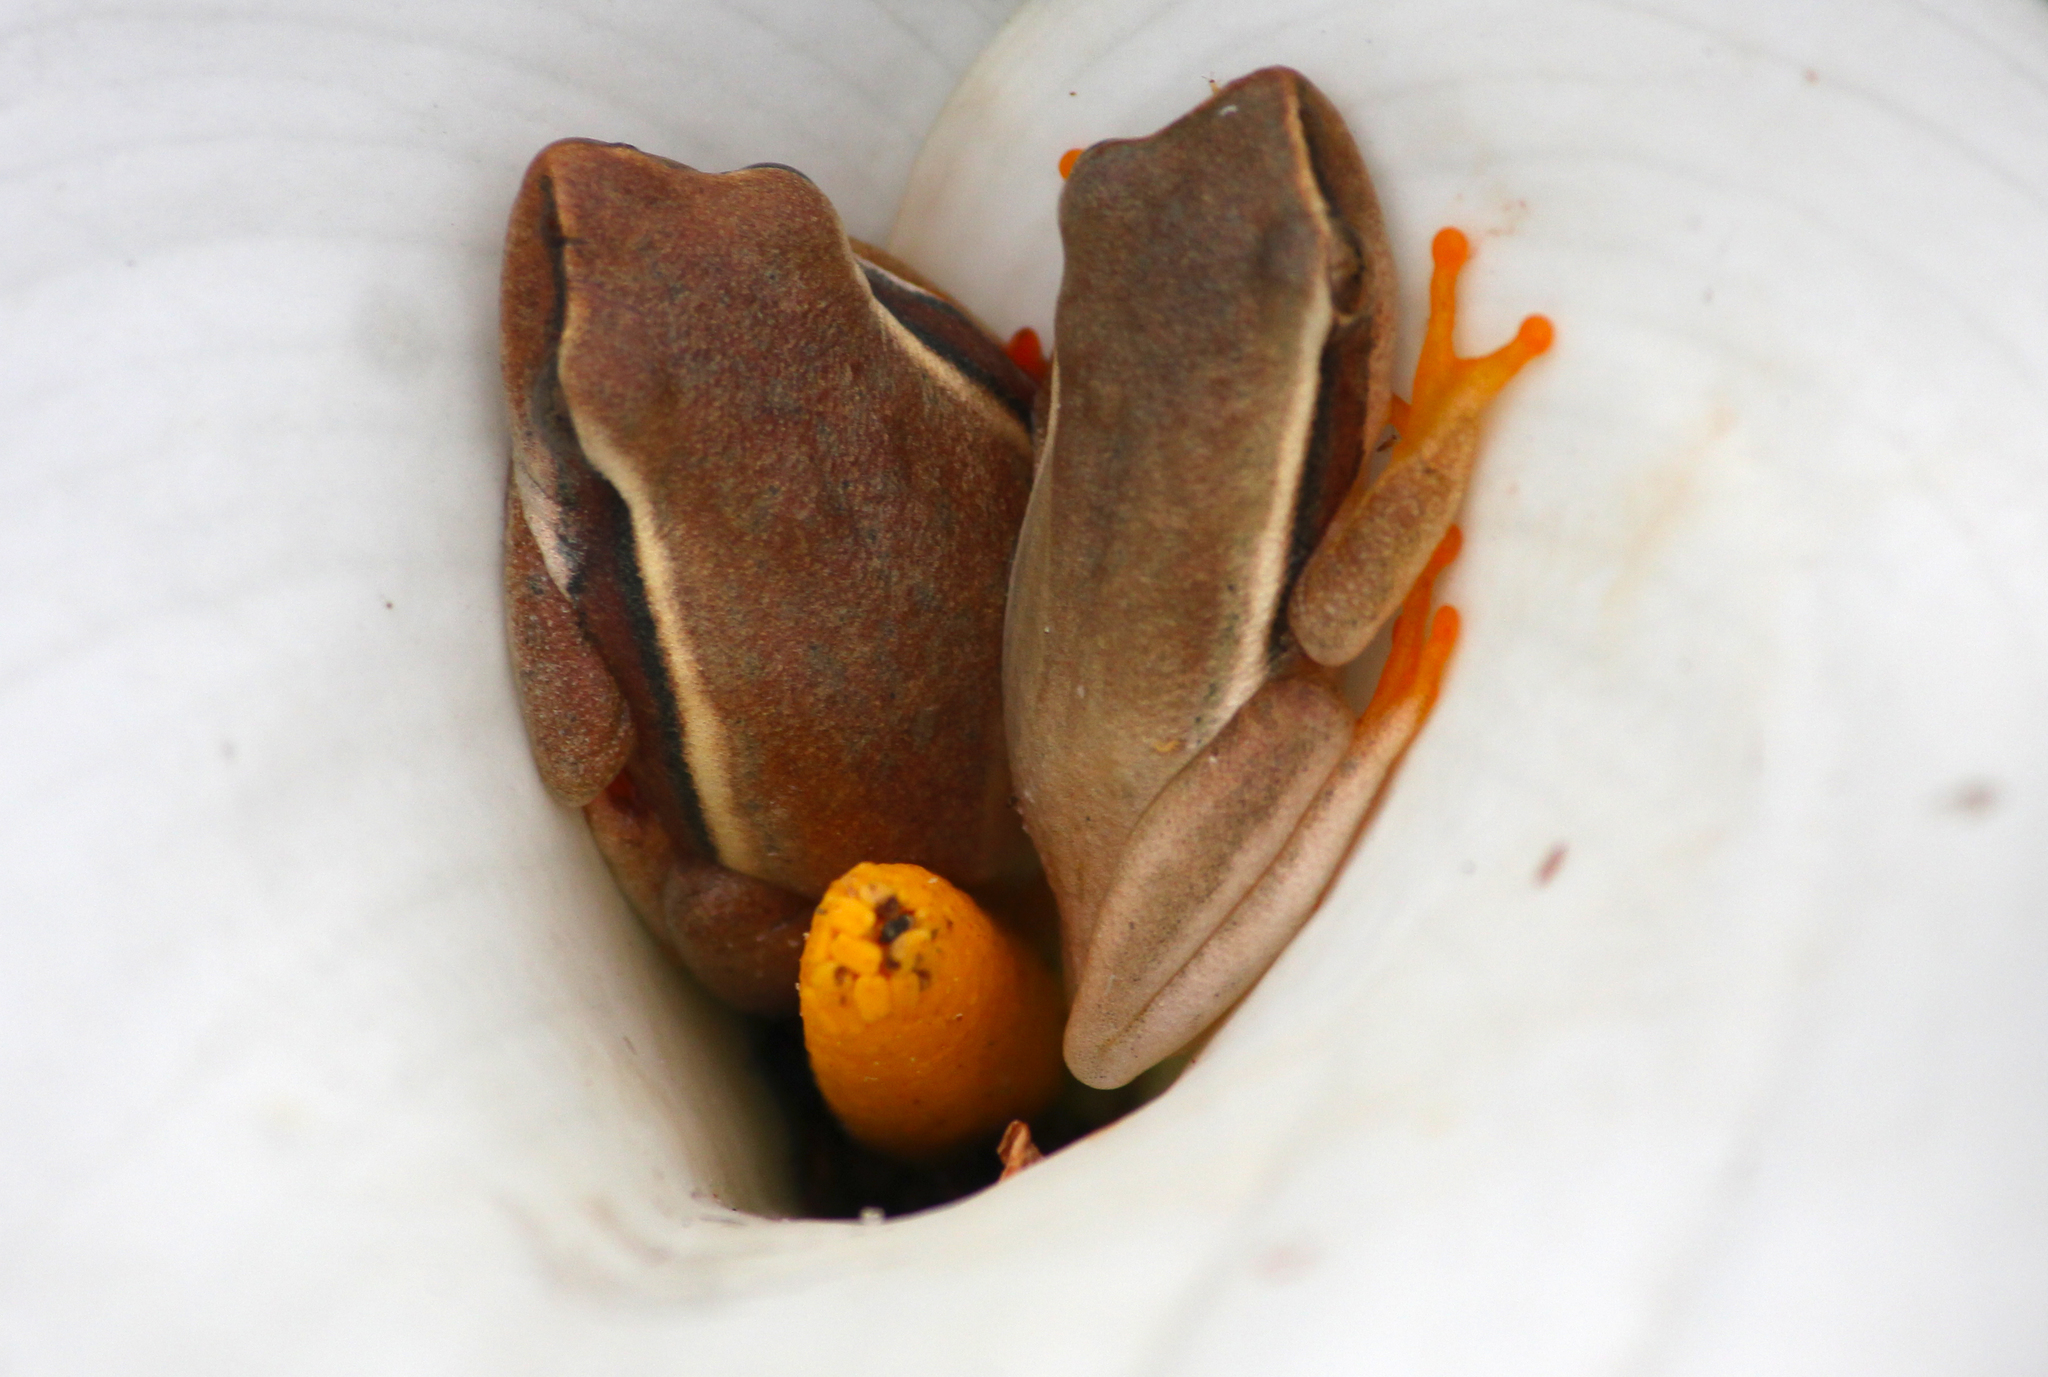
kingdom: Animalia
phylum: Chordata
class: Amphibia
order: Anura
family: Hyperoliidae
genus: Hyperolius
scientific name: Hyperolius horstockii
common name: Arum lily frog
